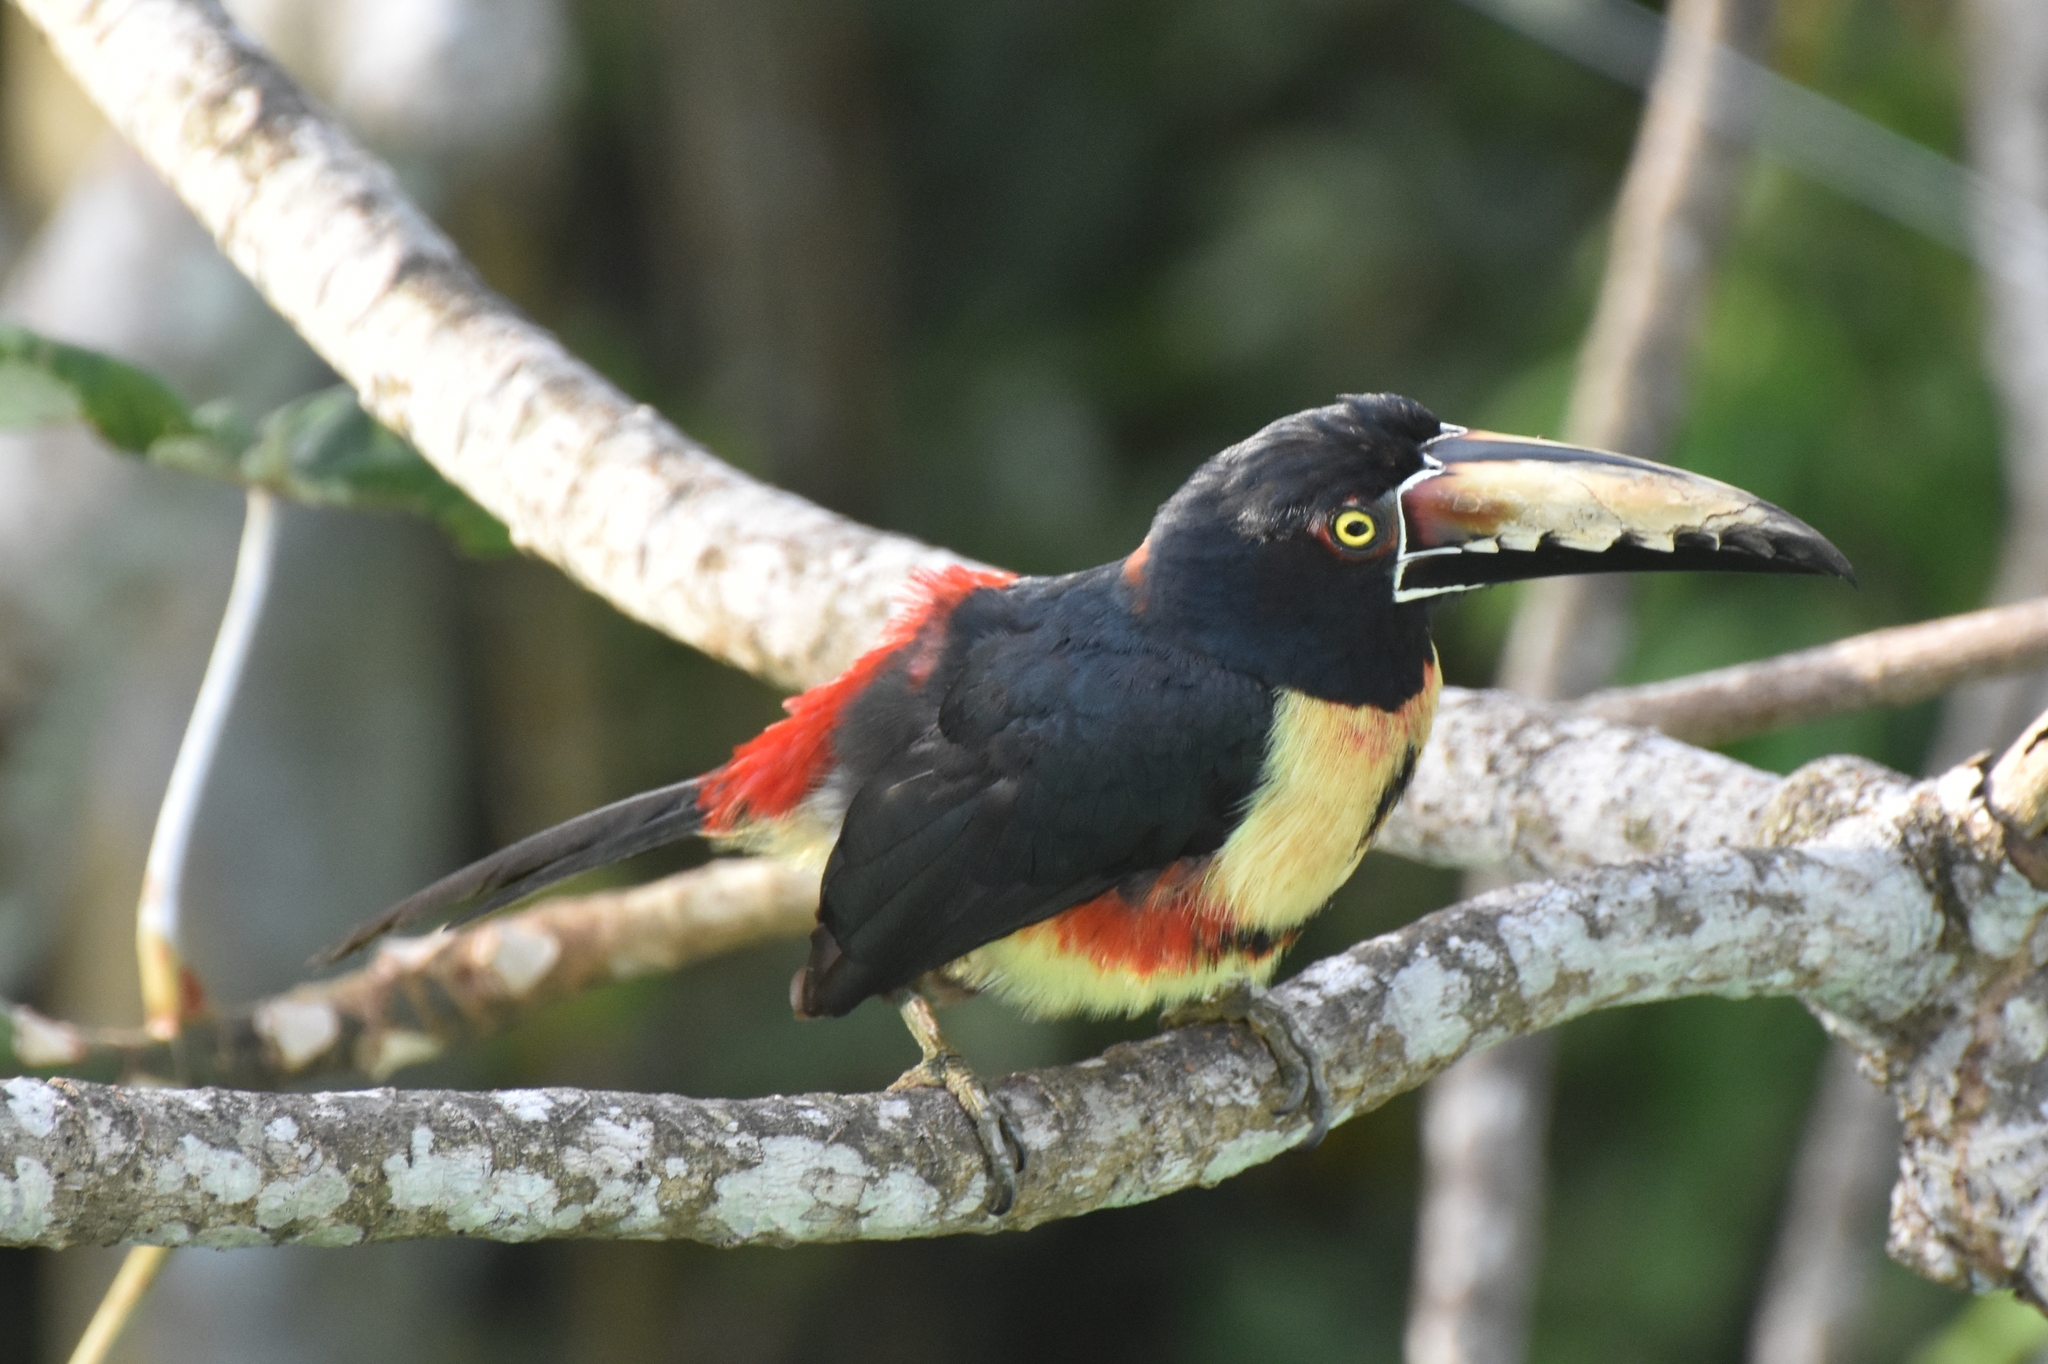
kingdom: Animalia
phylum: Chordata
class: Aves
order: Piciformes
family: Ramphastidae
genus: Pteroglossus
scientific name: Pteroglossus torquatus
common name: Collared aracari
